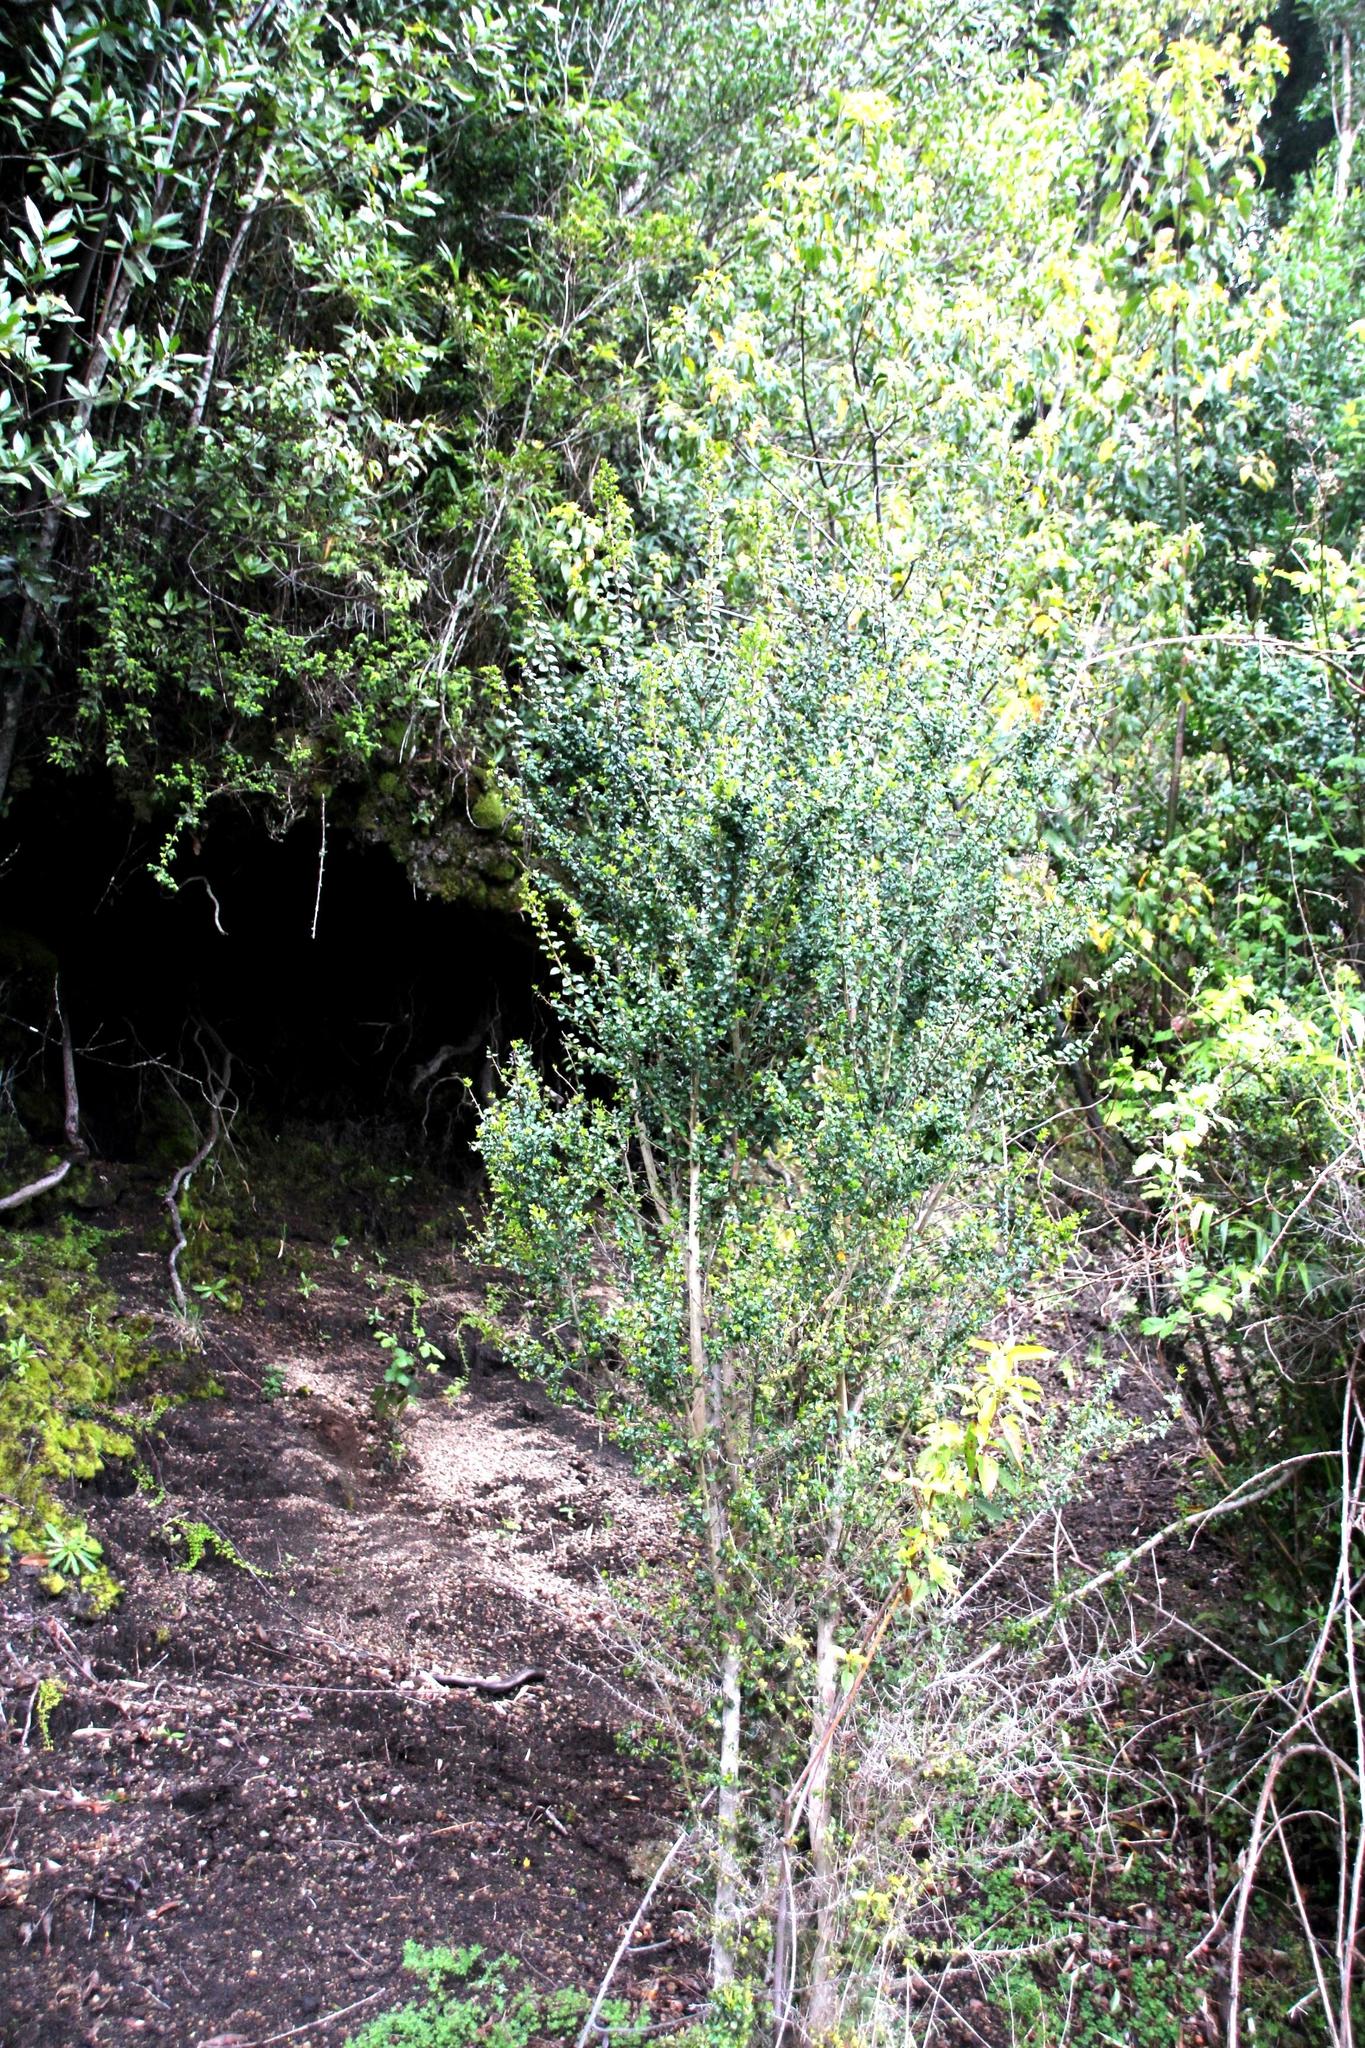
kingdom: Plantae
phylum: Tracheophyta
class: Magnoliopsida
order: Lamiales
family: Verbenaceae
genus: Rhaphithamnus
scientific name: Rhaphithamnus spinosus
